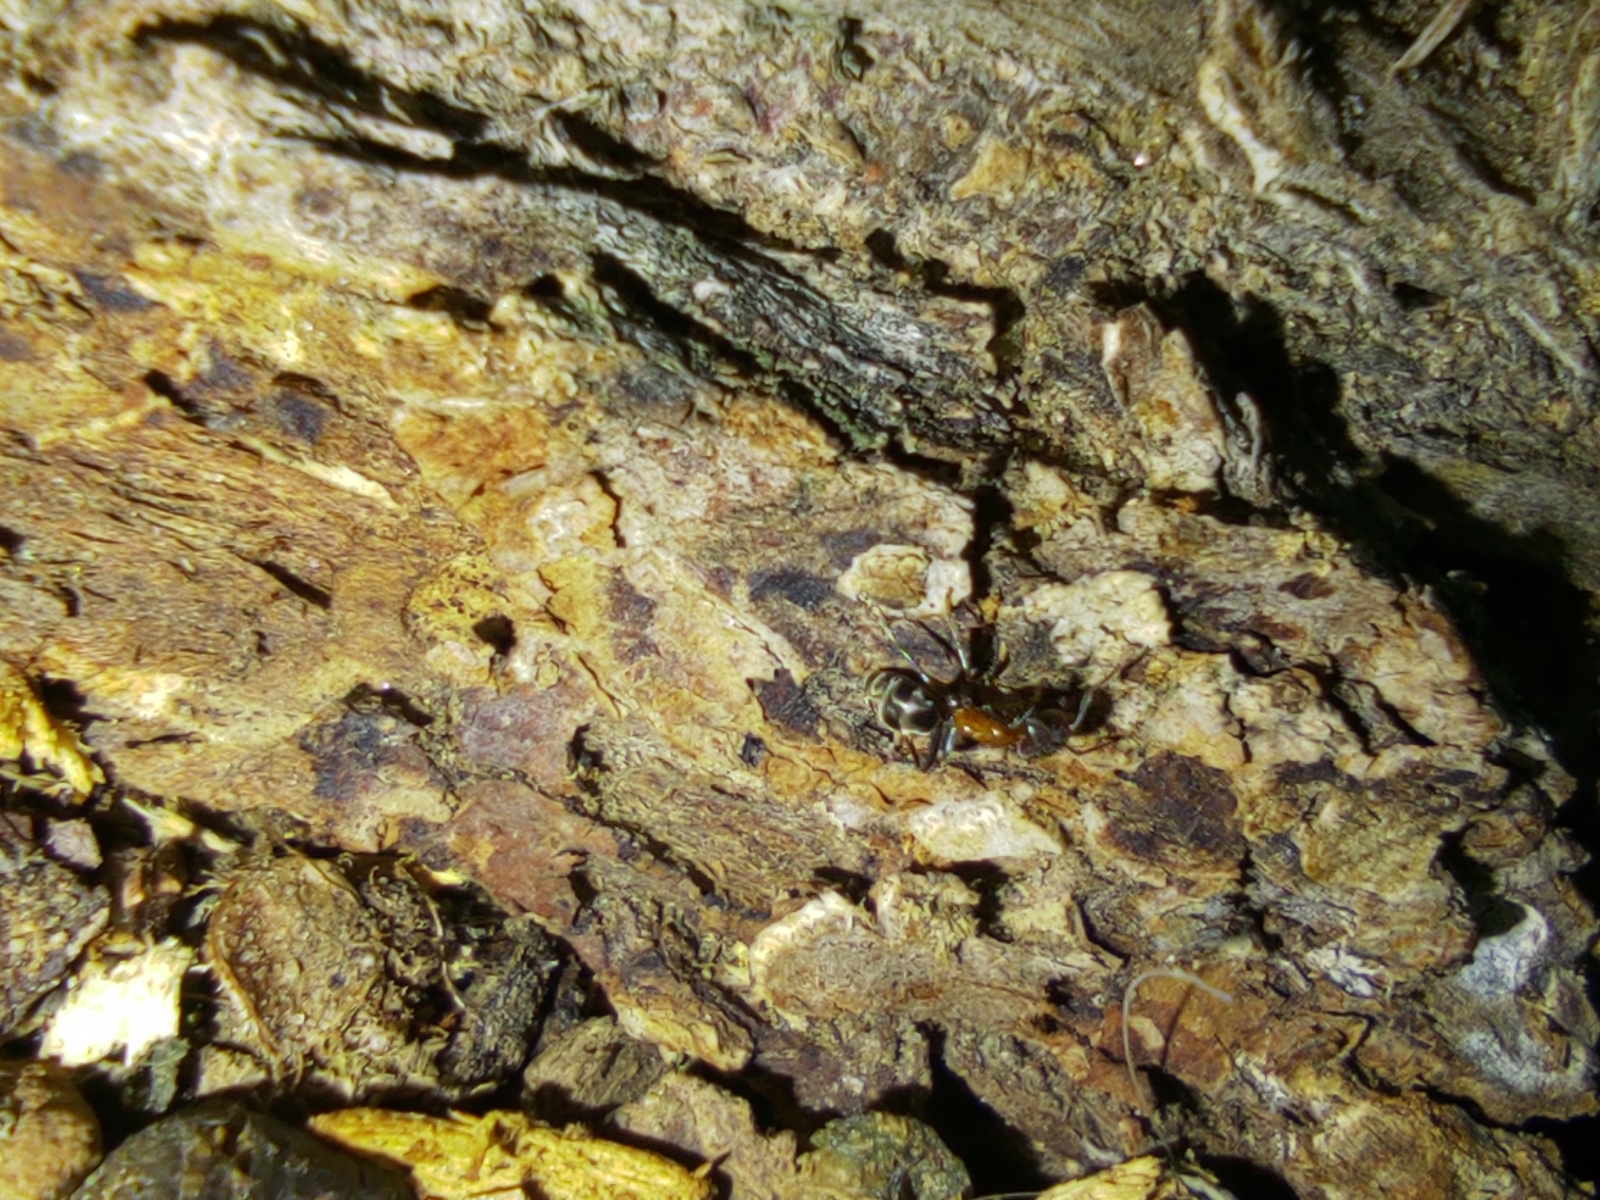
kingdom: Animalia
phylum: Arthropoda
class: Insecta
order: Hymenoptera
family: Formicidae
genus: Liometopum
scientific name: Liometopum microcephalum
